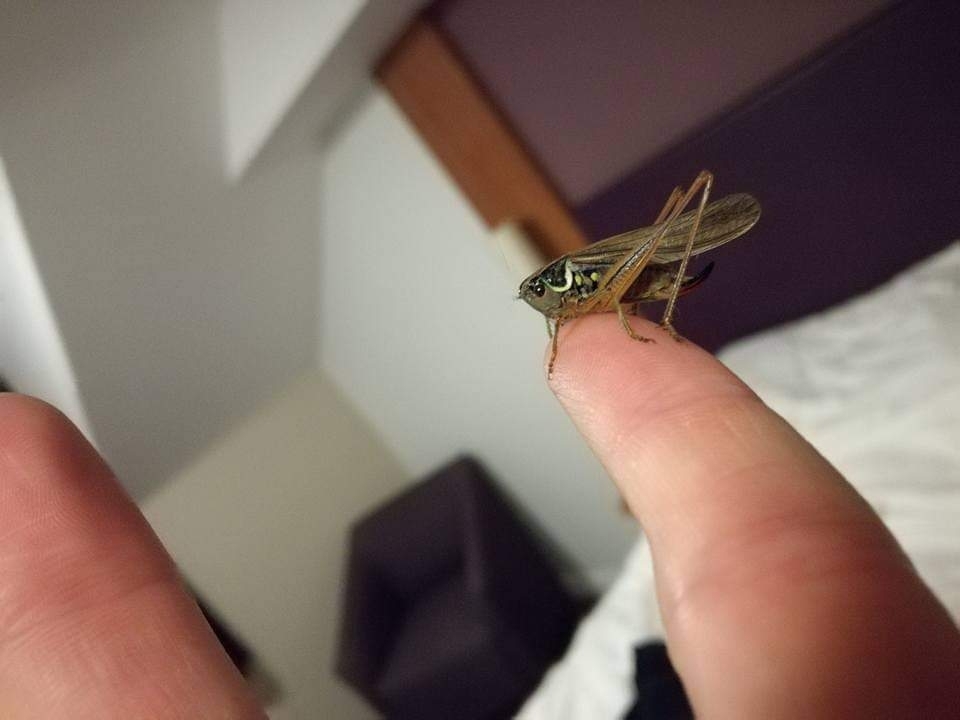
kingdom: Animalia
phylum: Arthropoda
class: Insecta
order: Orthoptera
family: Tettigoniidae
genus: Roeseliana
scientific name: Roeseliana roeselii
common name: Roesel's bush cricket
